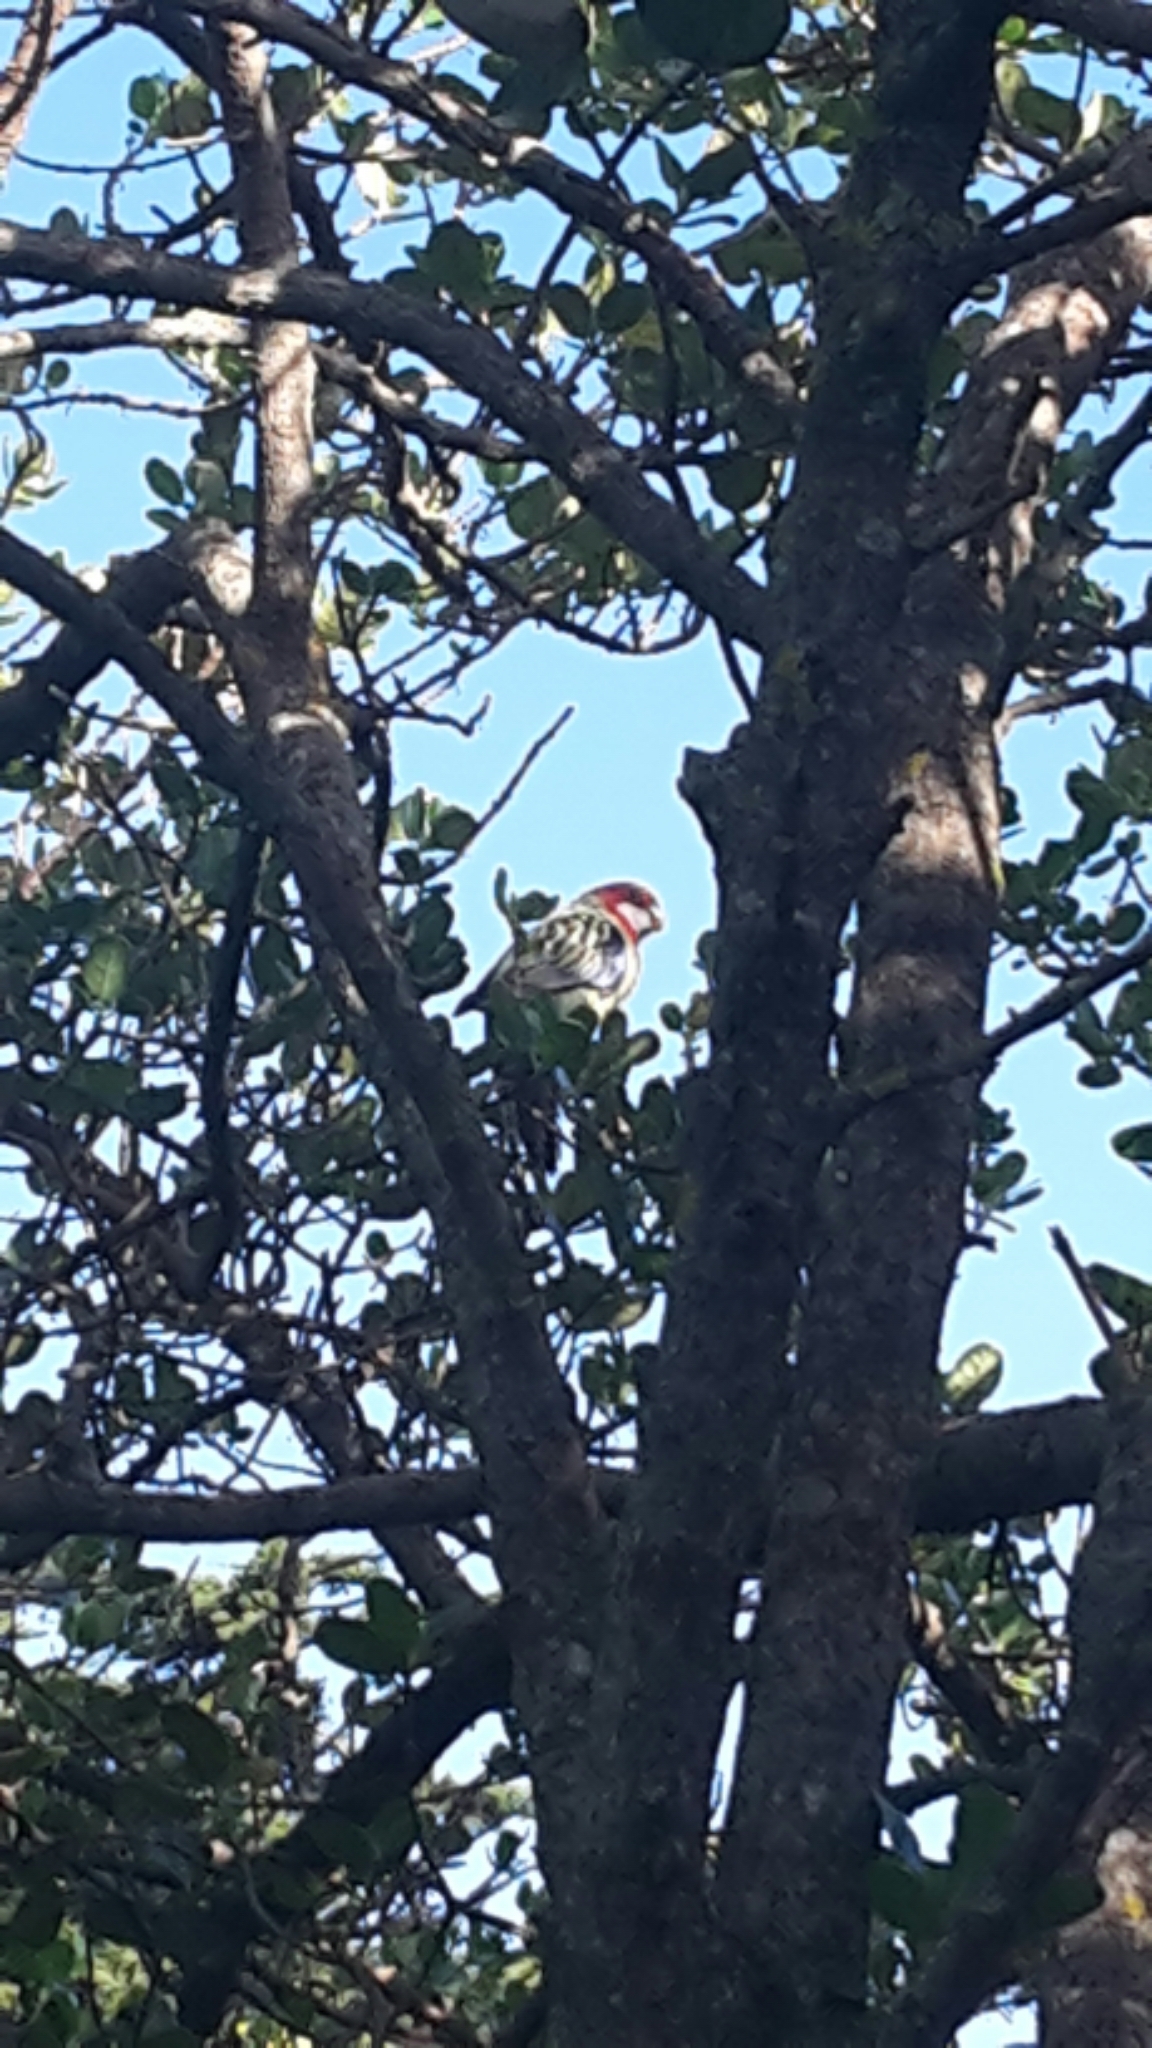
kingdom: Animalia
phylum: Chordata
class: Aves
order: Psittaciformes
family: Psittacidae
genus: Platycercus
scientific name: Platycercus eximius
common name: Eastern rosella
